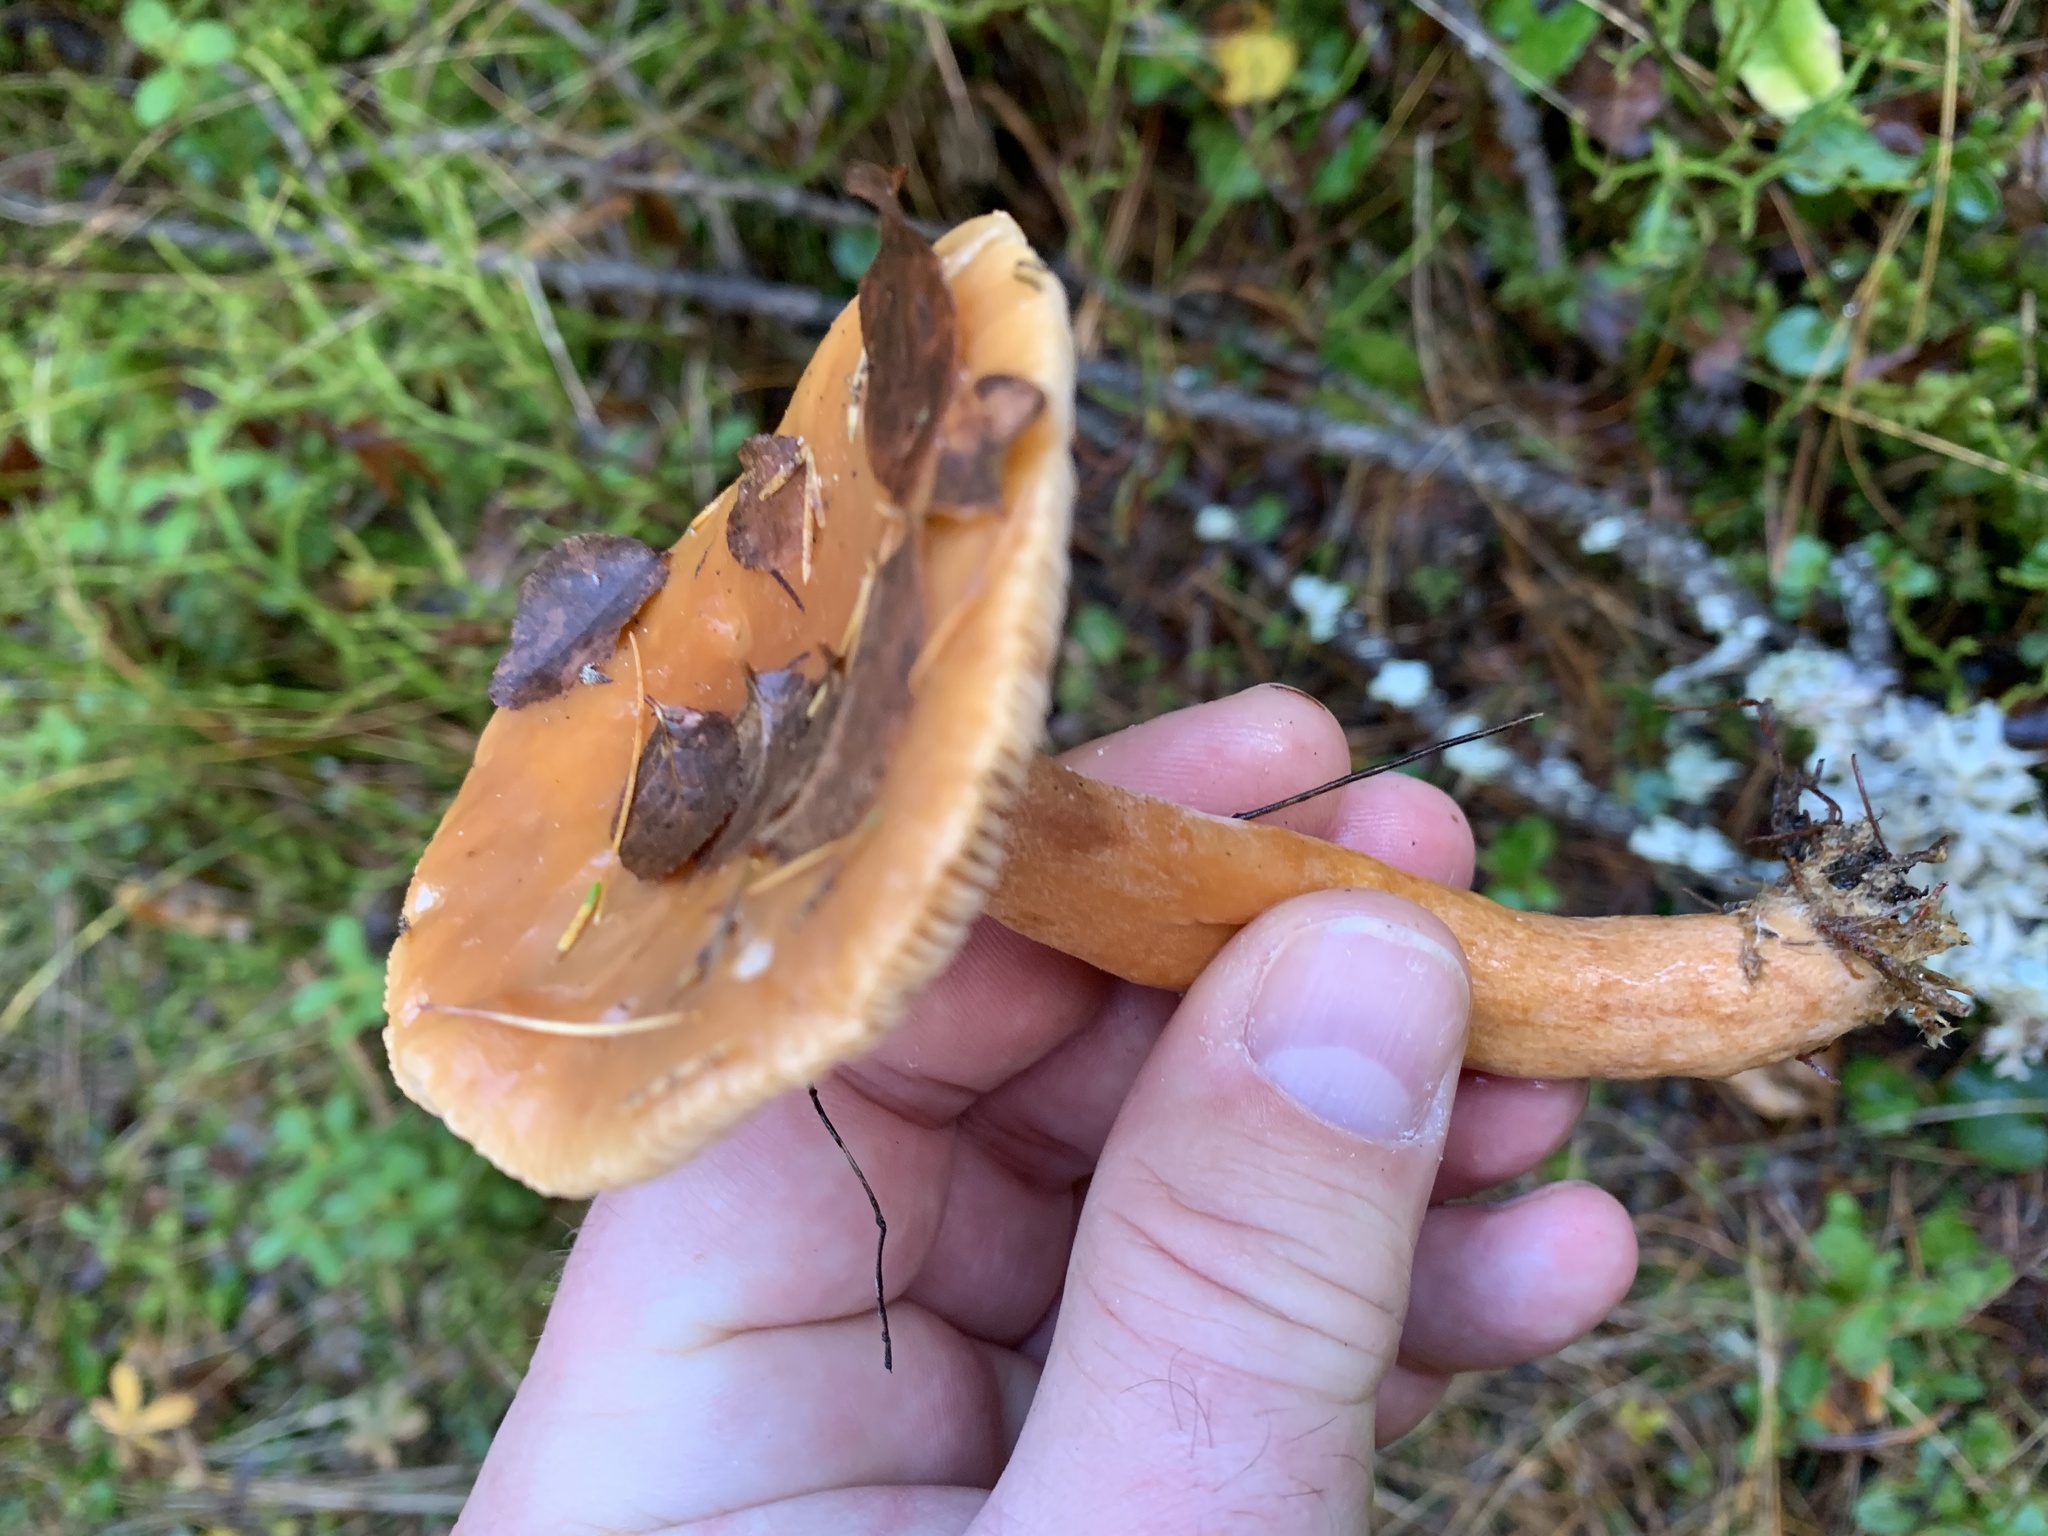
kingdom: Fungi
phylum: Basidiomycota
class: Agaricomycetes
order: Russulales
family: Russulaceae
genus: Lactarius
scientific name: Lactarius aurantiacus
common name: Orange milkcap
